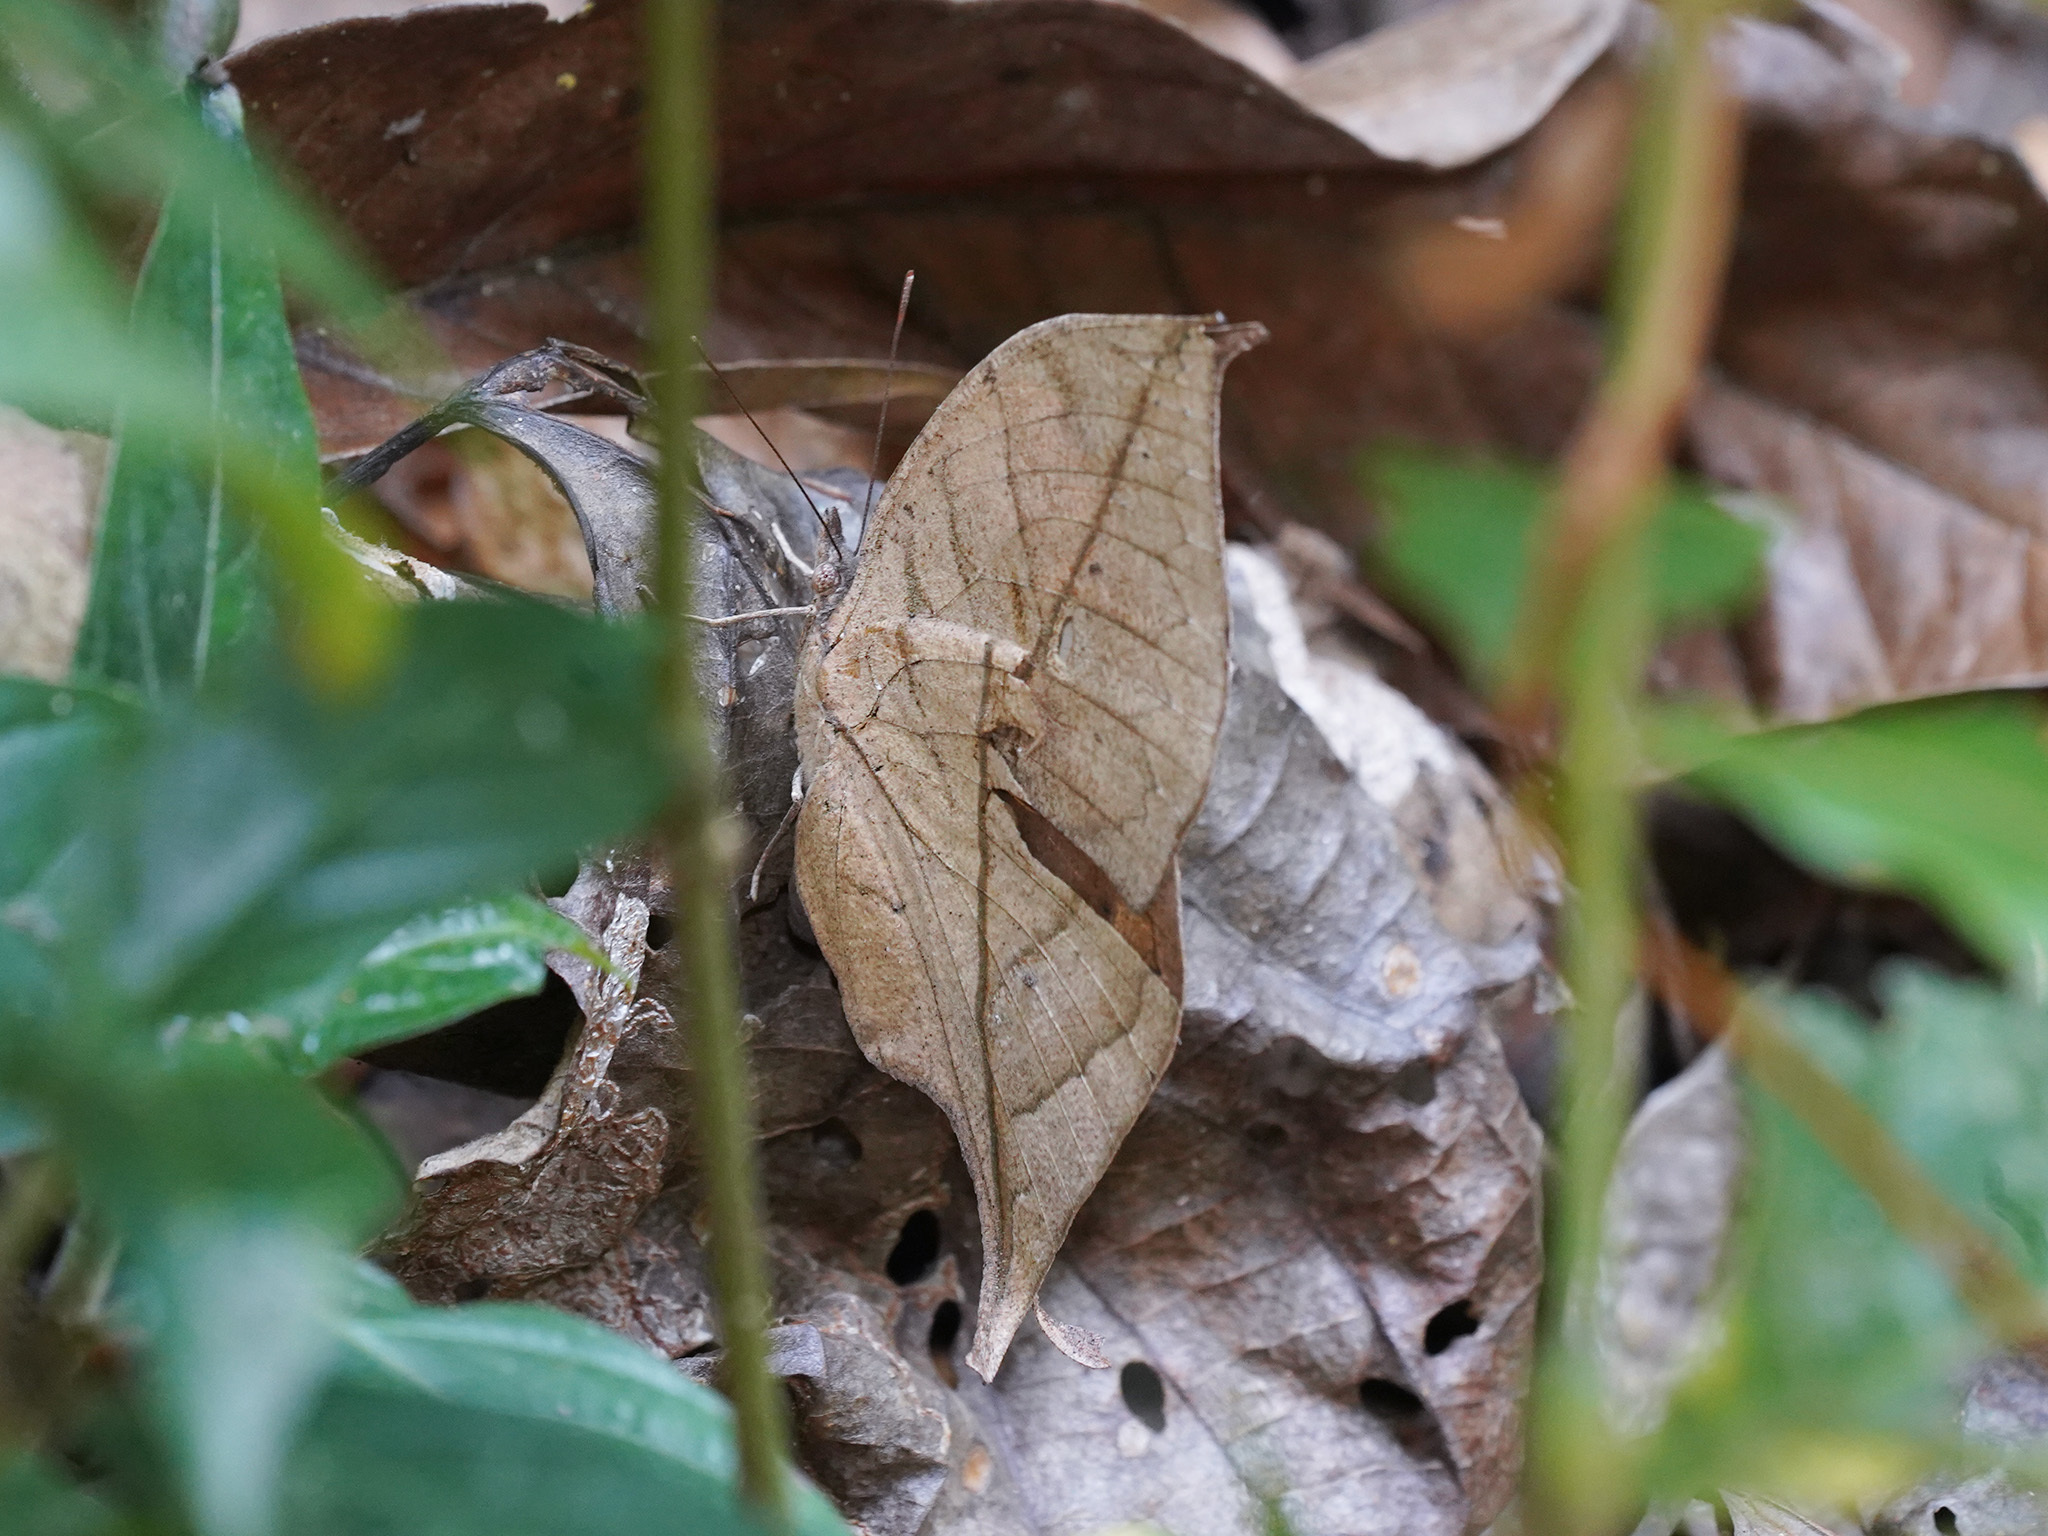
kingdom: Animalia
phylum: Arthropoda
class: Insecta
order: Lepidoptera
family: Nymphalidae
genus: Kallima
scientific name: Kallima inachus
